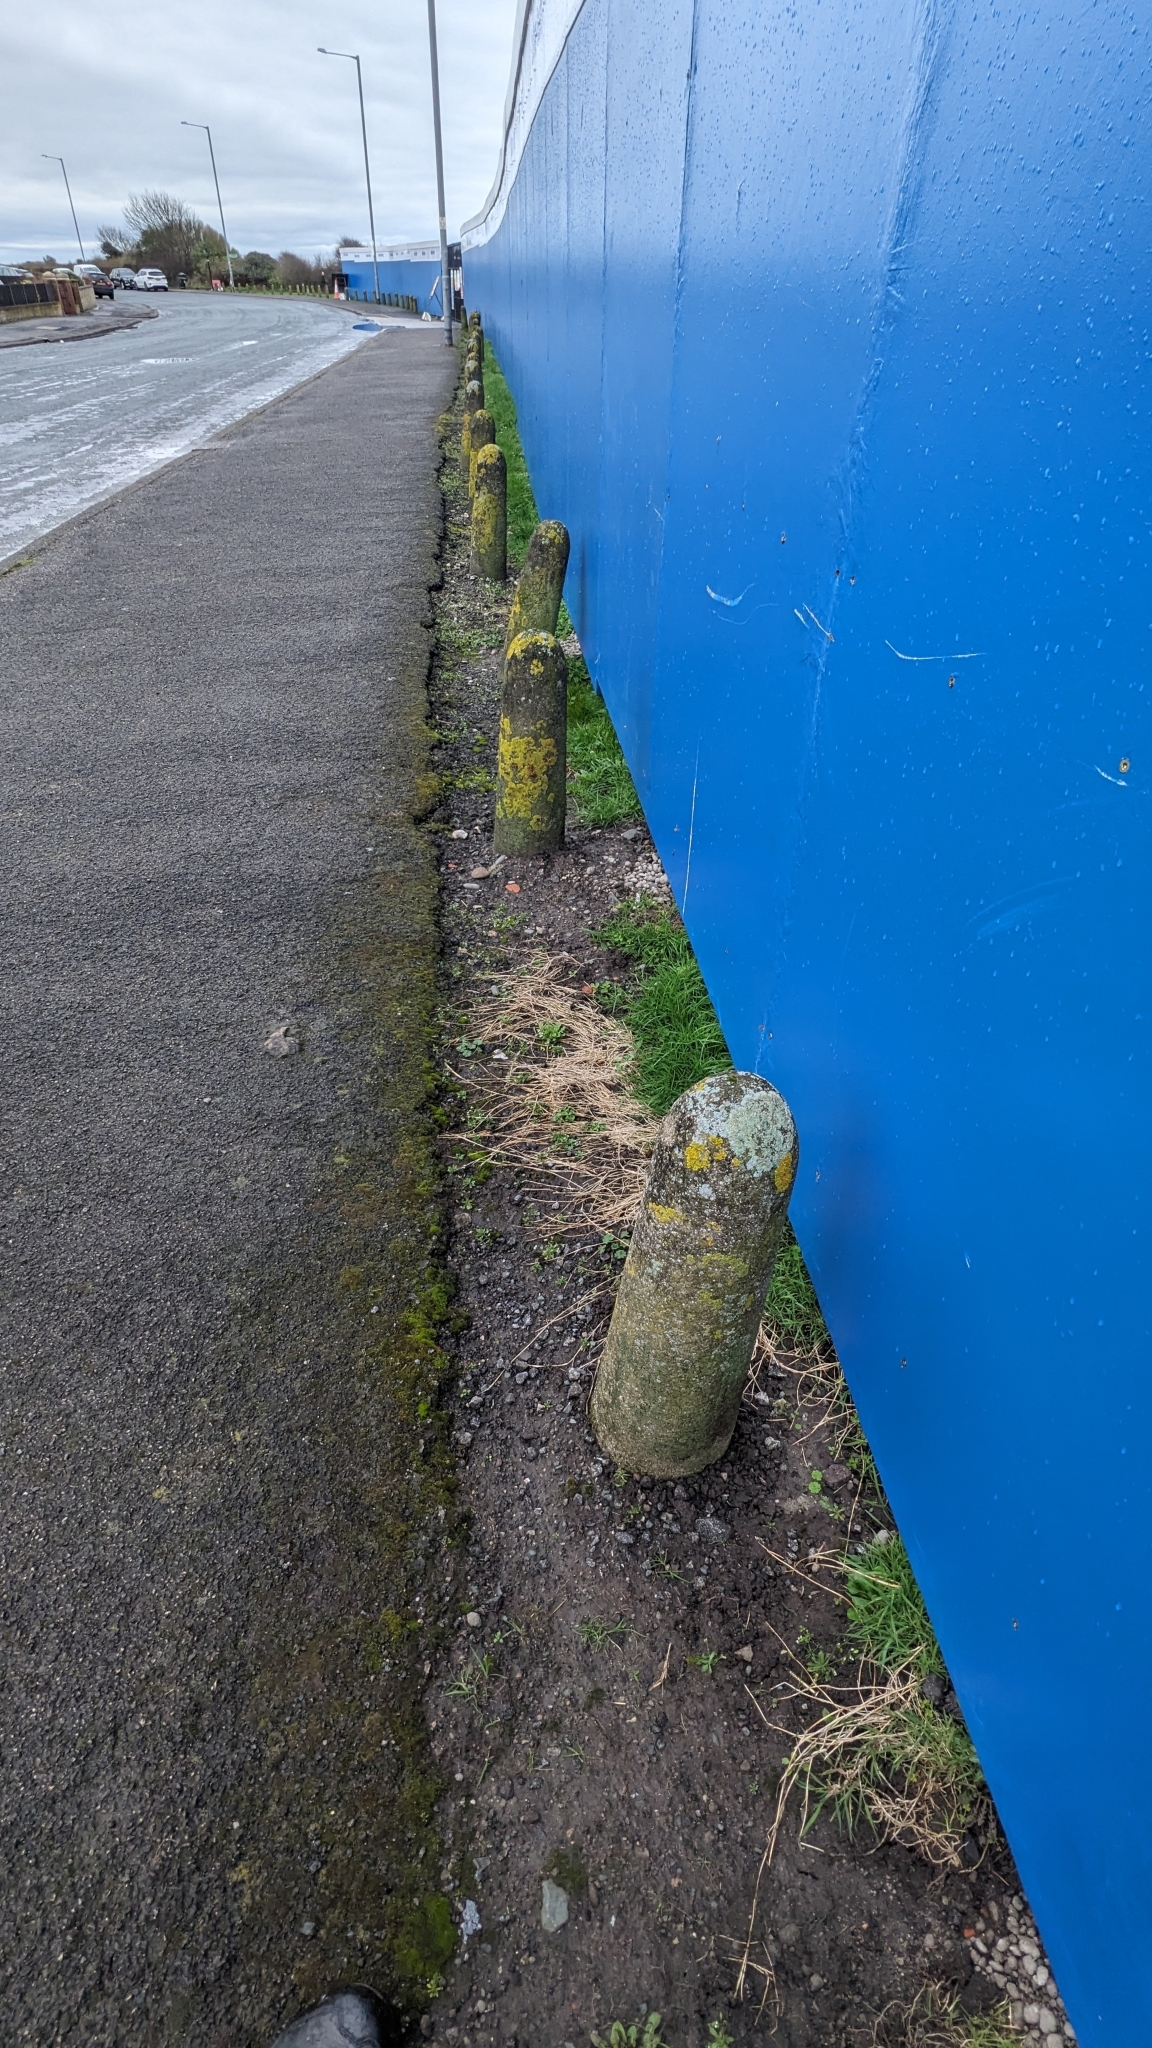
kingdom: Fungi
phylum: Ascomycota
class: Lecanoromycetes
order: Lecanorales
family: Lecanoraceae
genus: Protoparmeliopsis
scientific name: Protoparmeliopsis muralis
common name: Stonewall rim lichen
